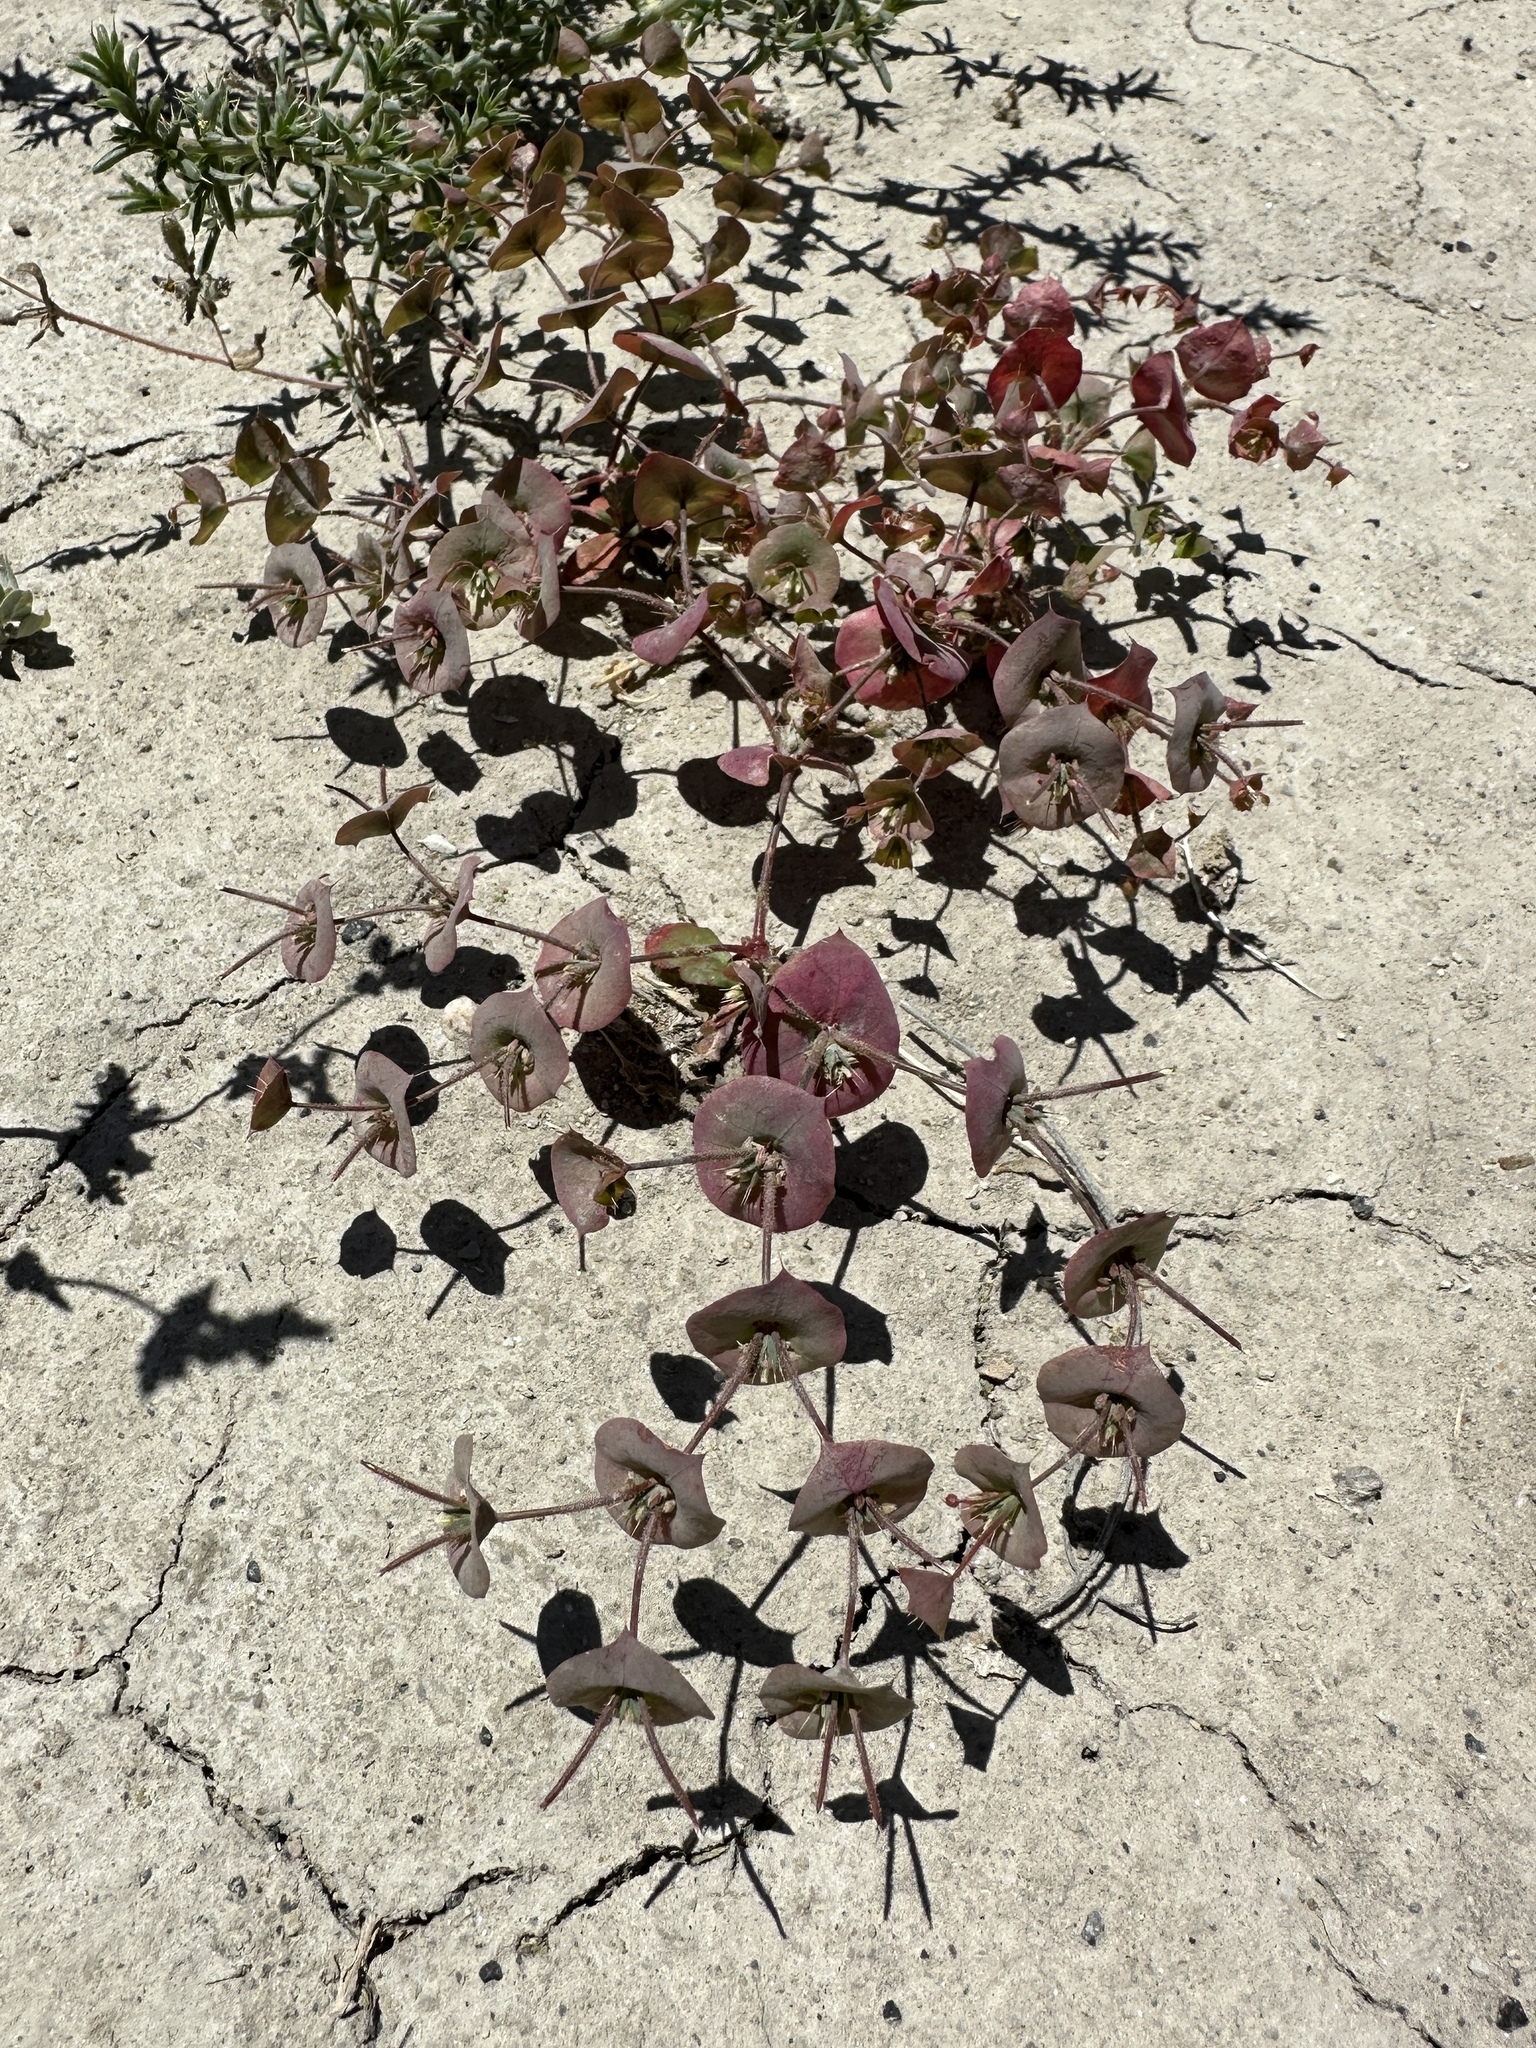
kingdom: Plantae
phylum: Tracheophyta
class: Magnoliopsida
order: Caryophyllales
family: Polygonaceae
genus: Oxytheca
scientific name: Oxytheca perfoliata
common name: Round-leaf puncturebract
